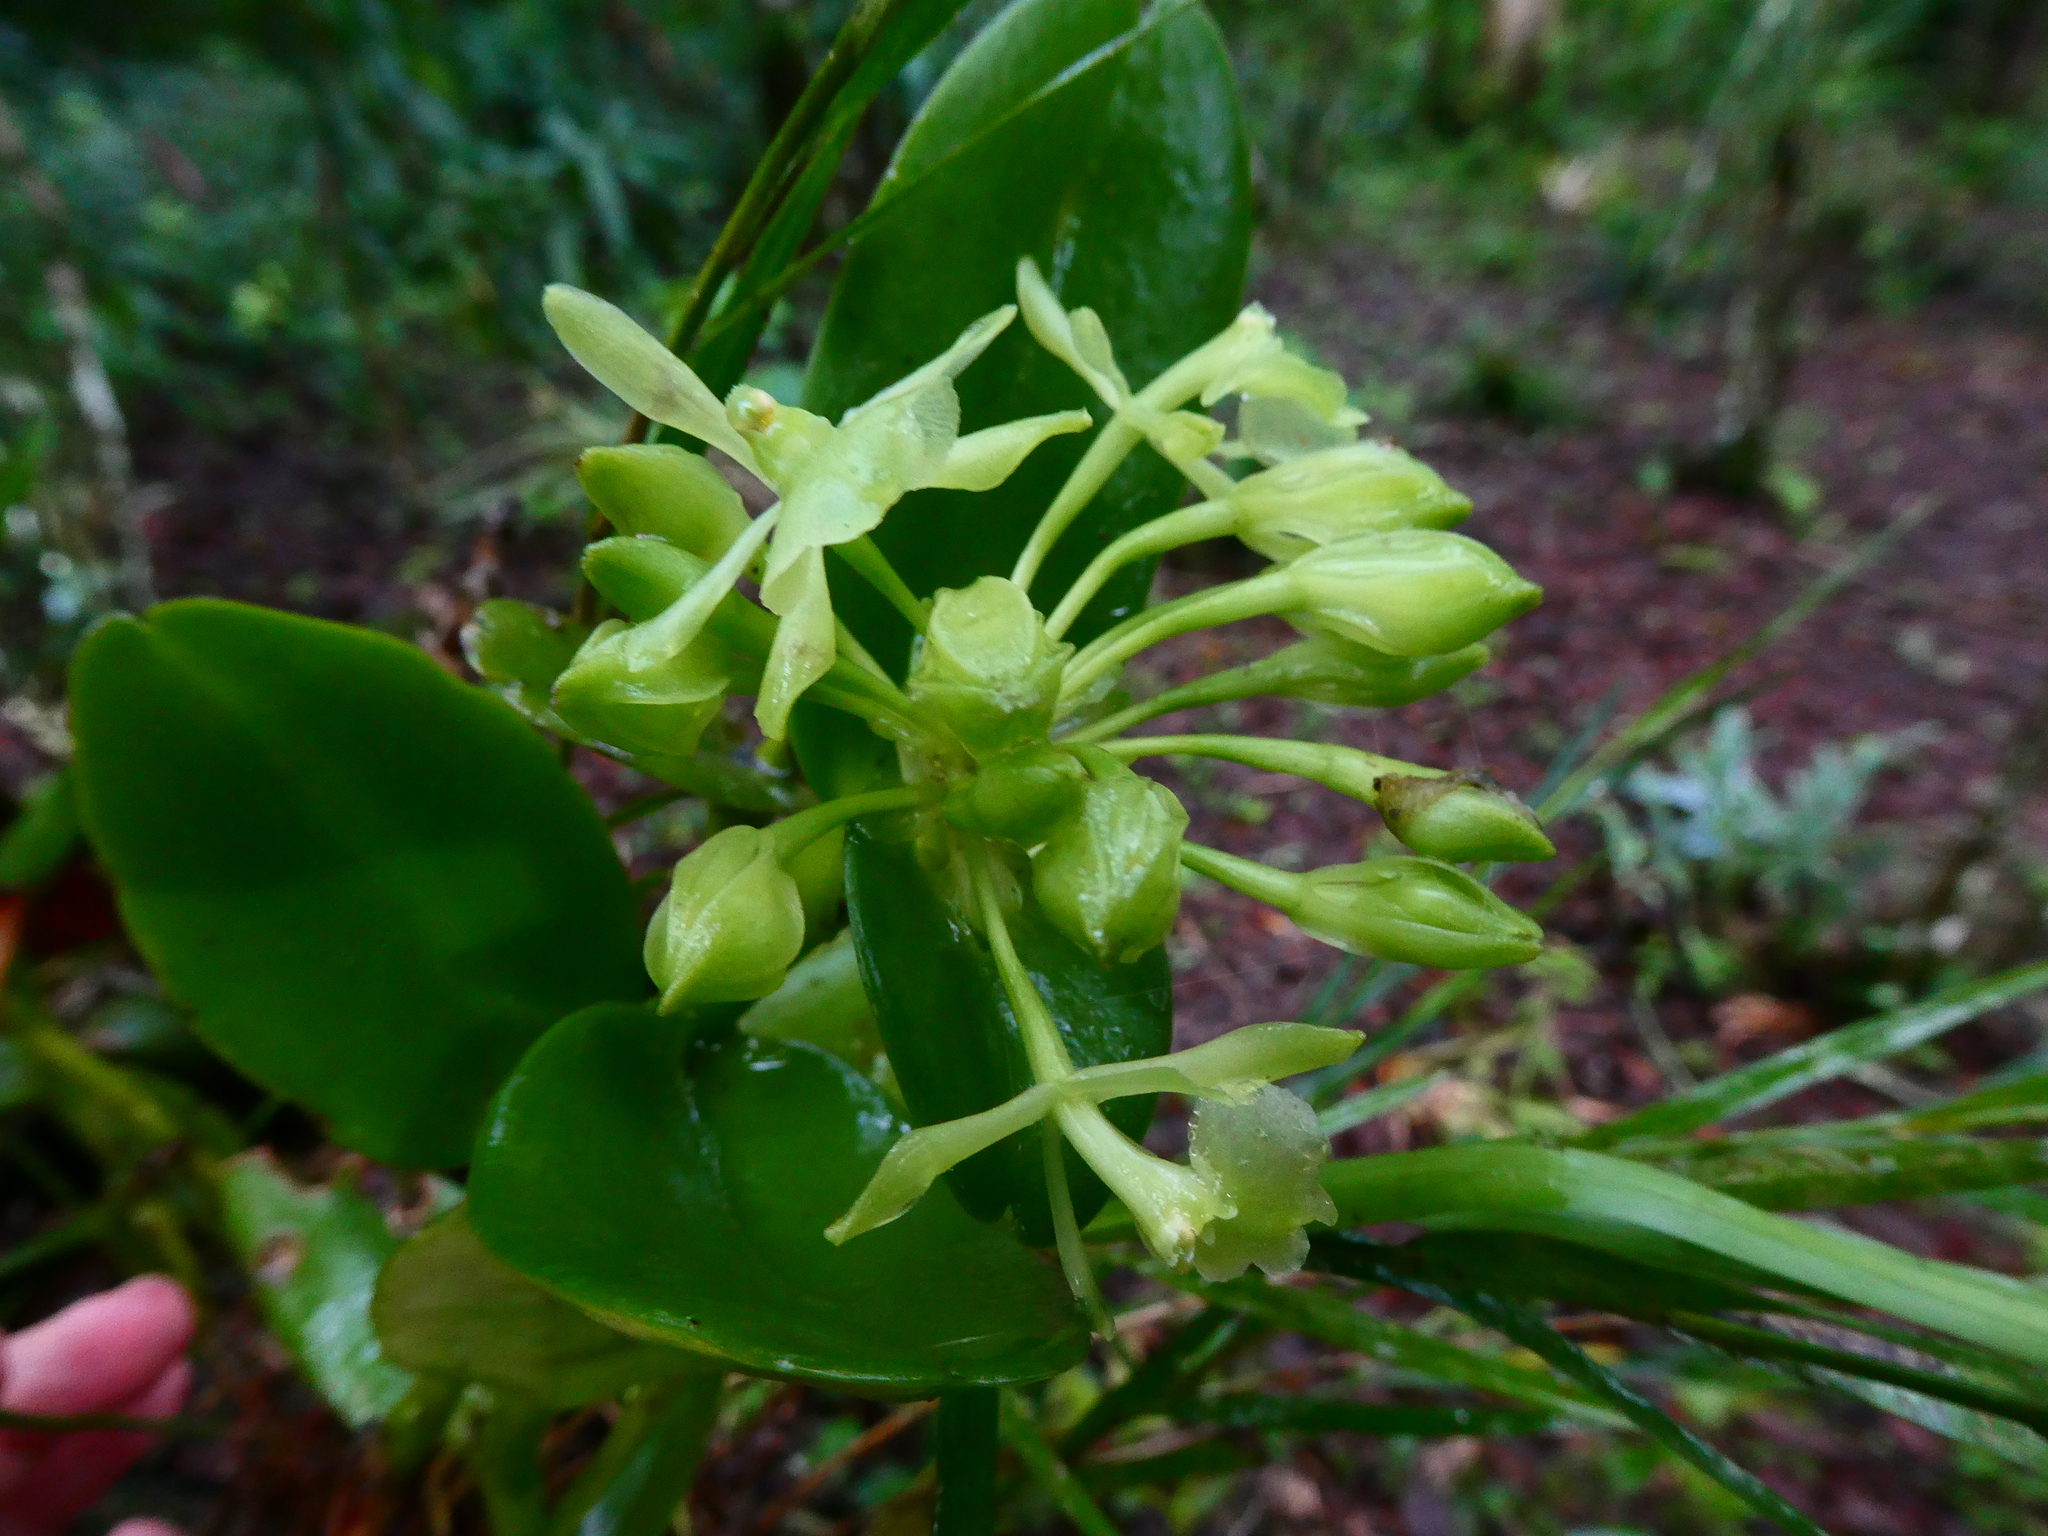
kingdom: Plantae
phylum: Tracheophyta
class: Liliopsida
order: Asparagales
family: Orchidaceae
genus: Epidendrum
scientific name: Epidendrum chlorocorymbos
